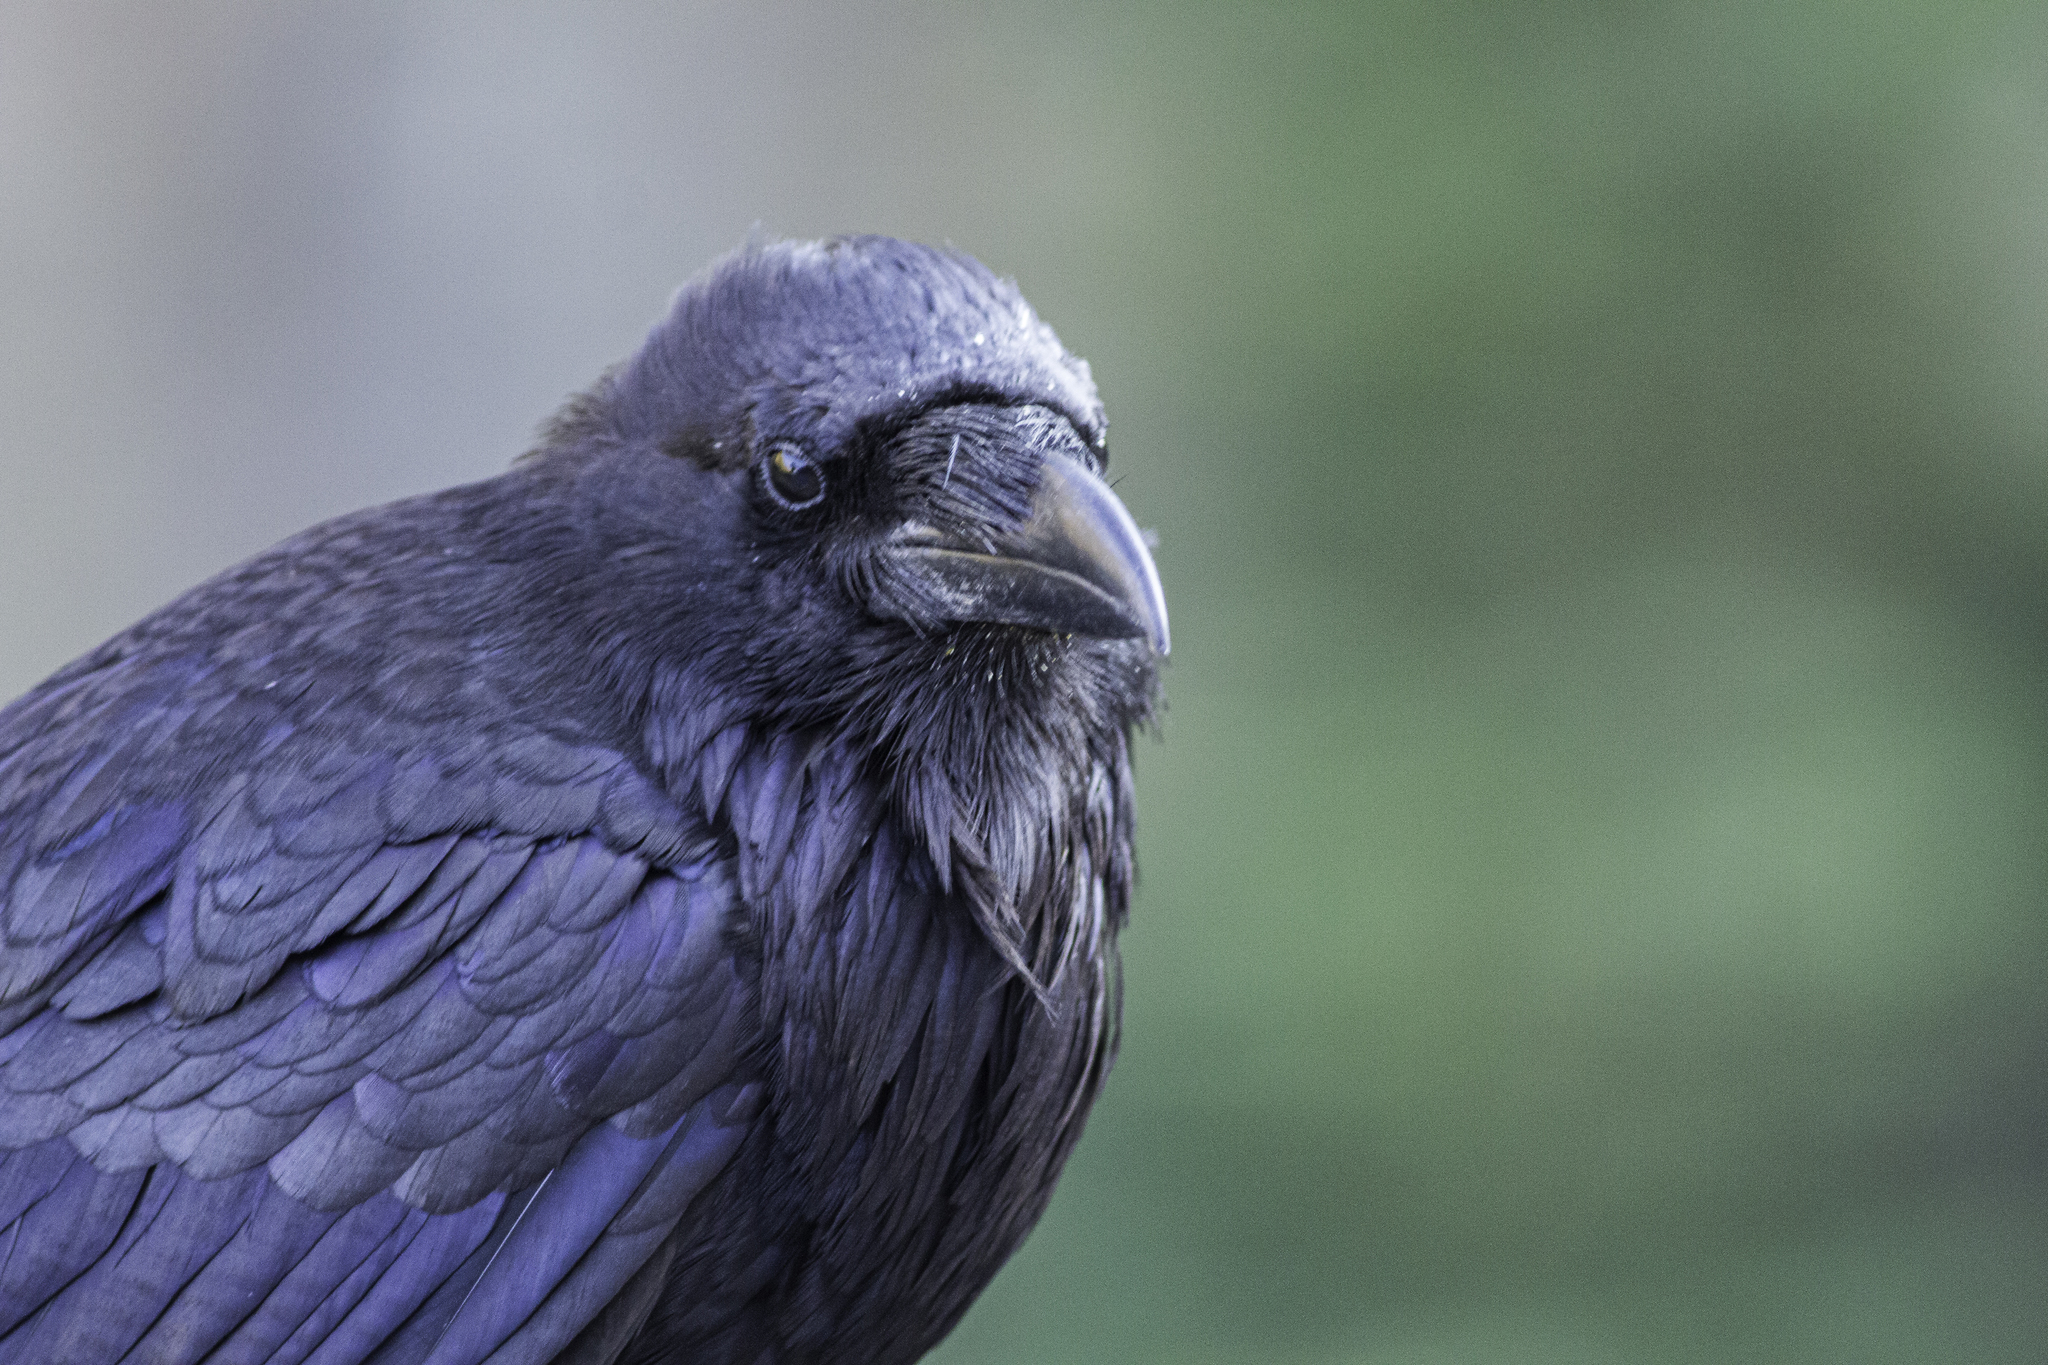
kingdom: Animalia
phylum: Chordata
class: Aves
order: Passeriformes
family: Corvidae
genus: Corvus
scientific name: Corvus corax
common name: Common raven
